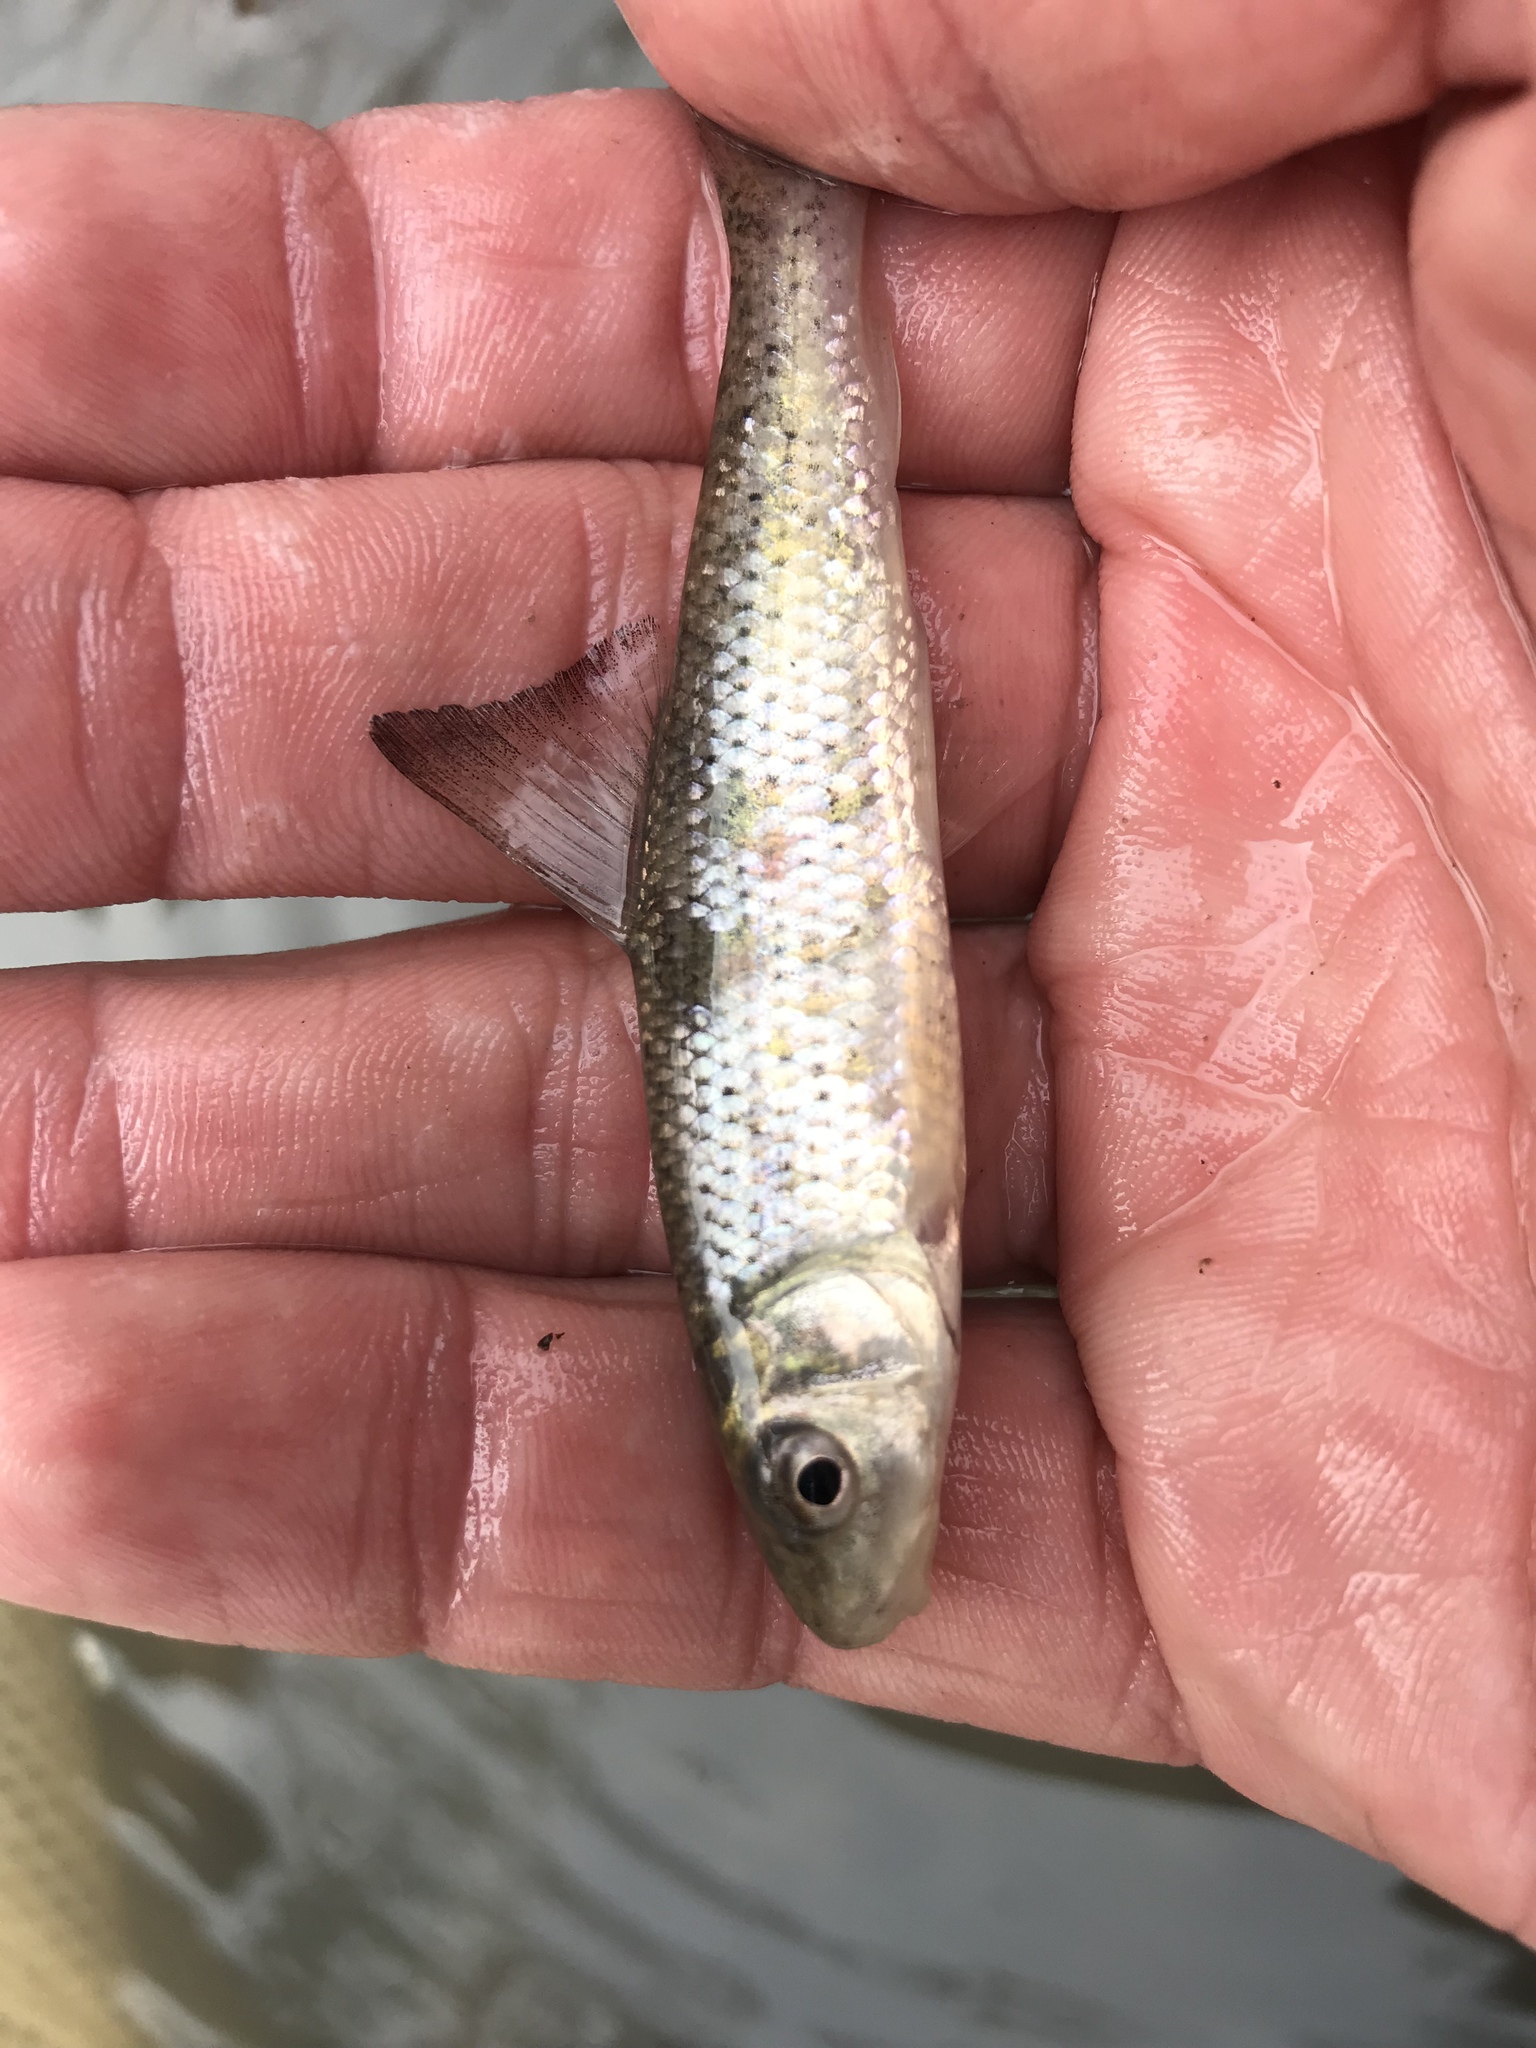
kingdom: Animalia
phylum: Chordata
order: Cypriniformes
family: Catostomidae
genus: Minytrema
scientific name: Minytrema melanops
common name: Spotted sucker
